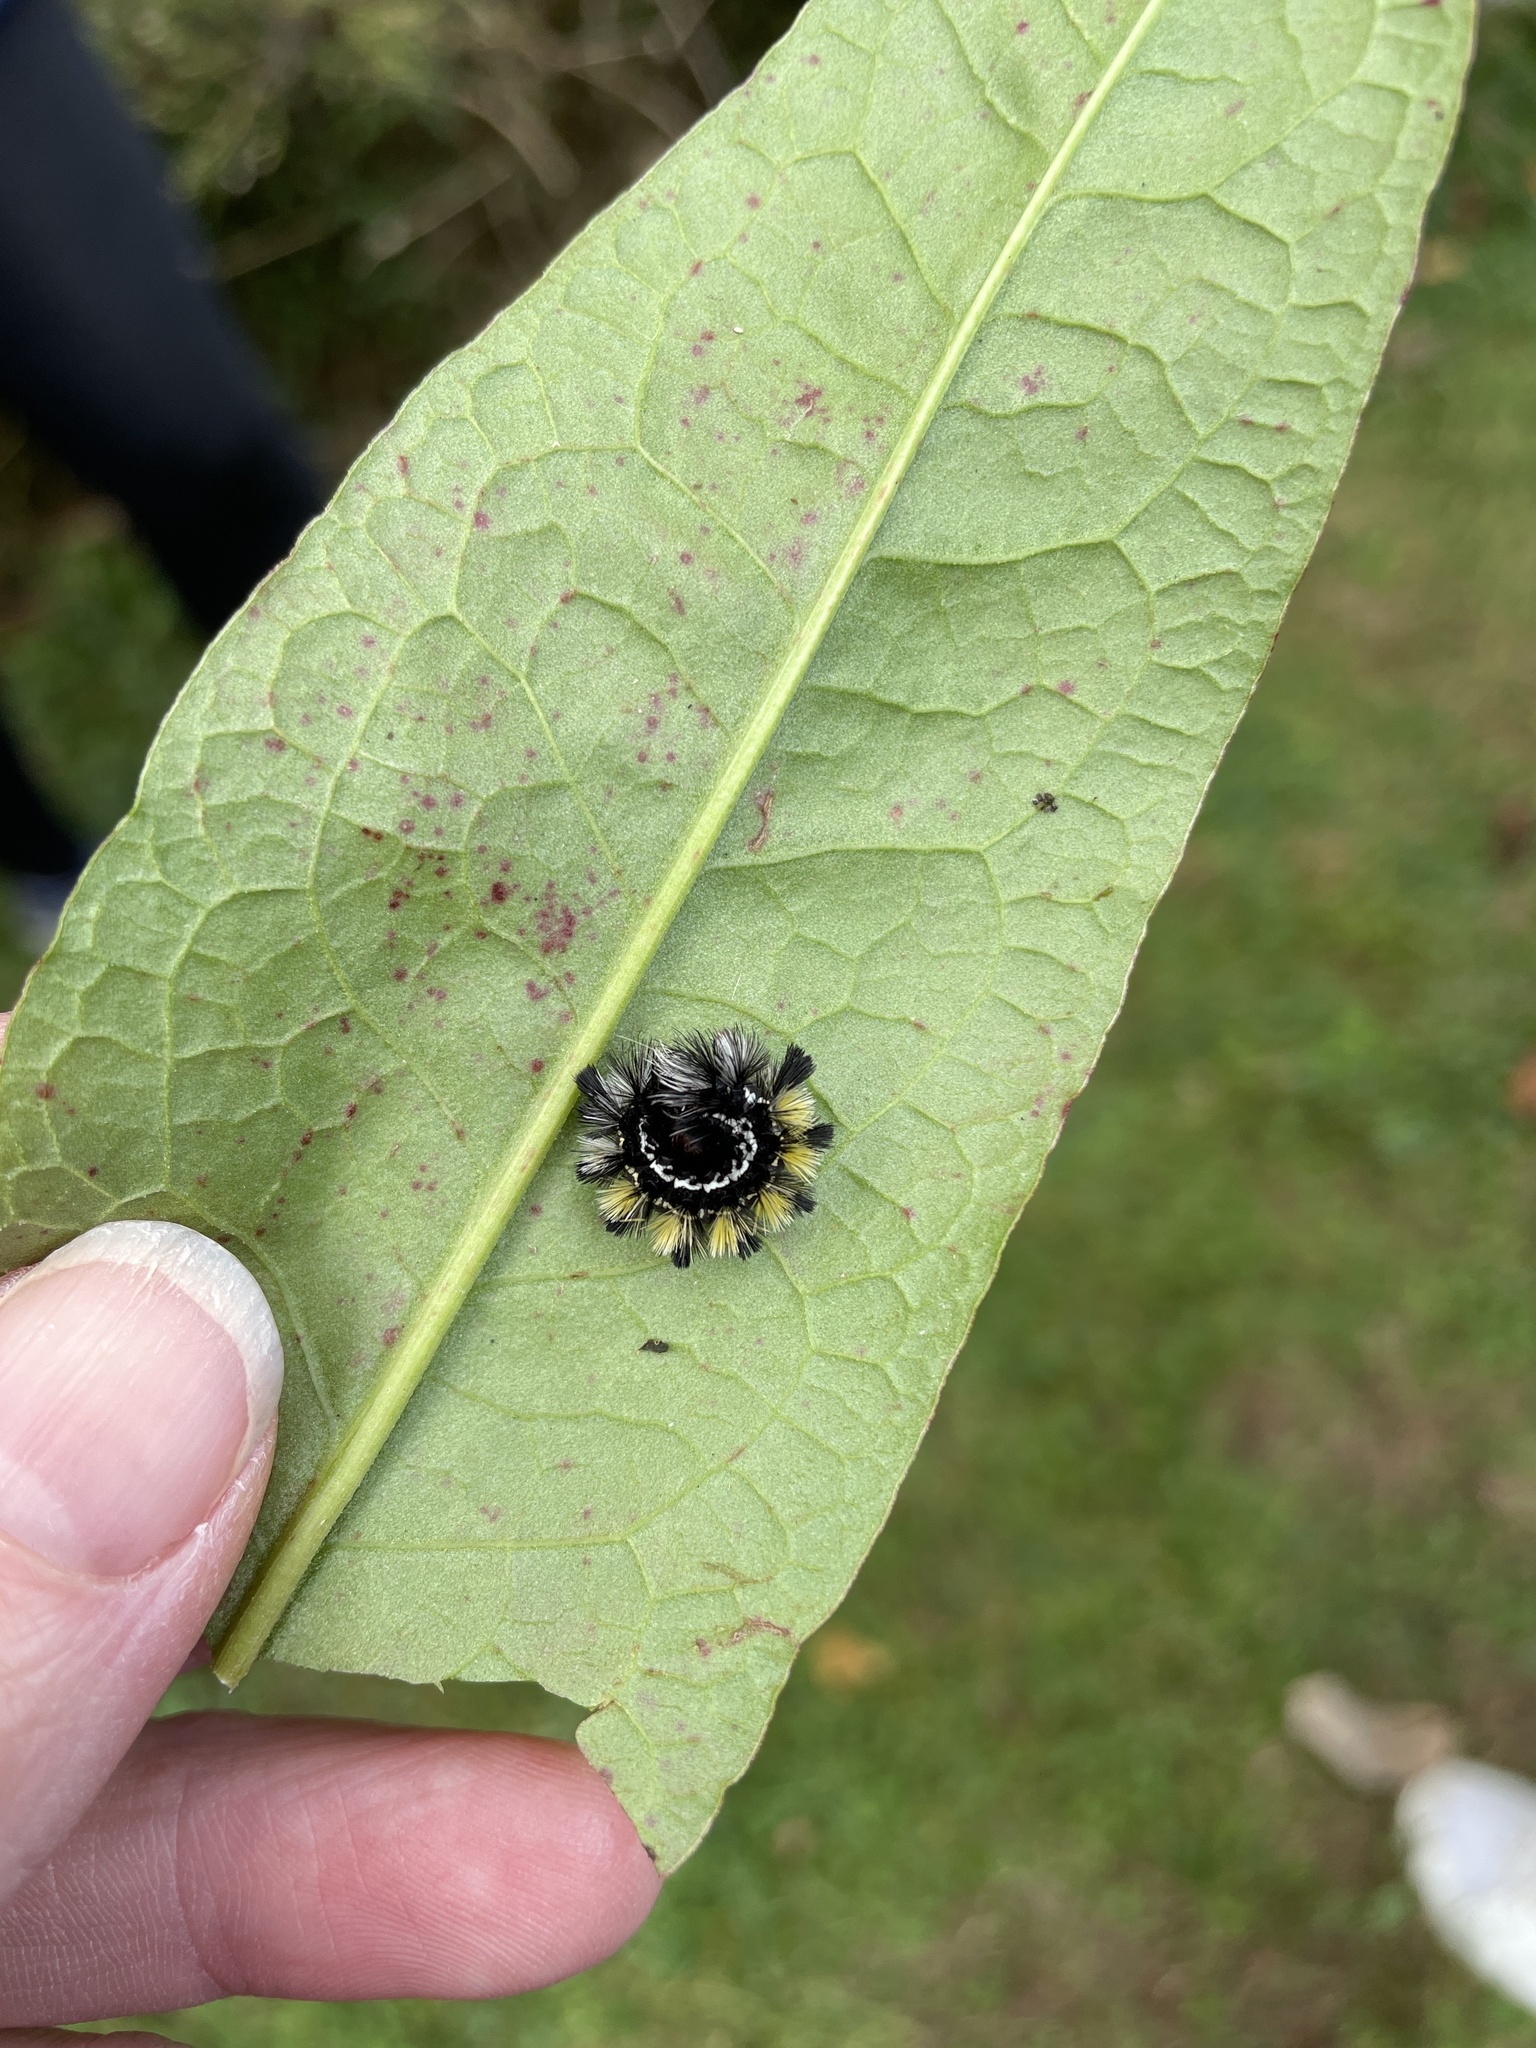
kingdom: Animalia
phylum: Arthropoda
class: Insecta
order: Lepidoptera
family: Erebidae
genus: Ctenucha
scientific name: Ctenucha virginica
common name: Virginia ctenucha moth
